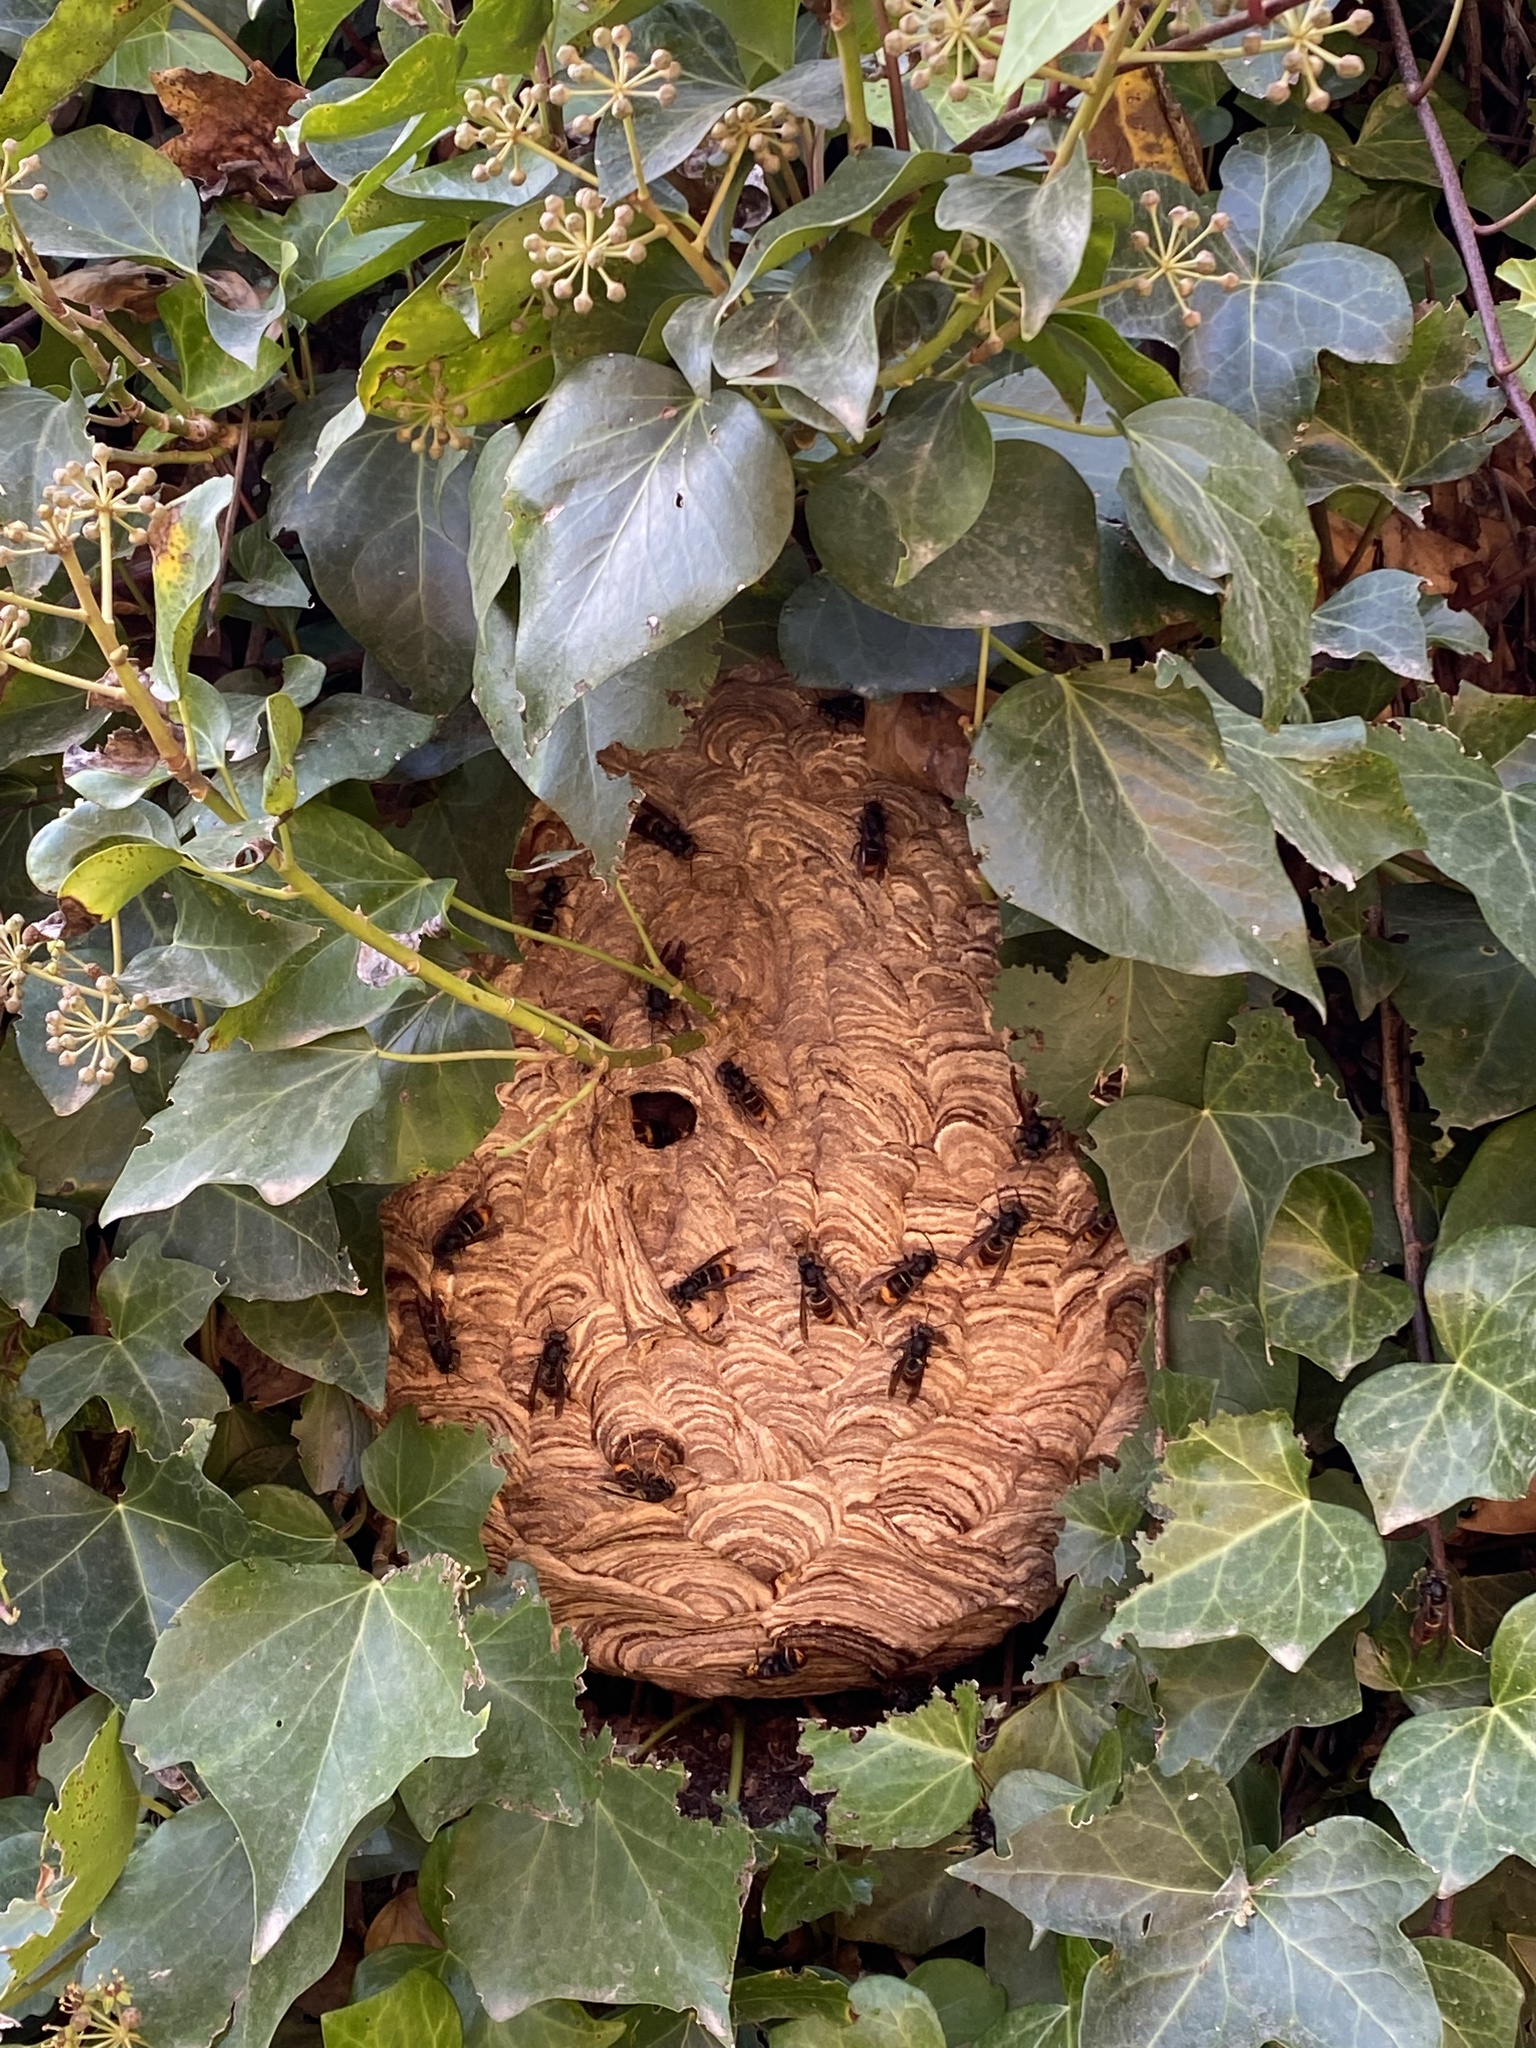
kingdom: Animalia
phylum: Arthropoda
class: Insecta
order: Hymenoptera
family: Vespidae
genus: Vespa
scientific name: Vespa velutina
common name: Asian hornet
